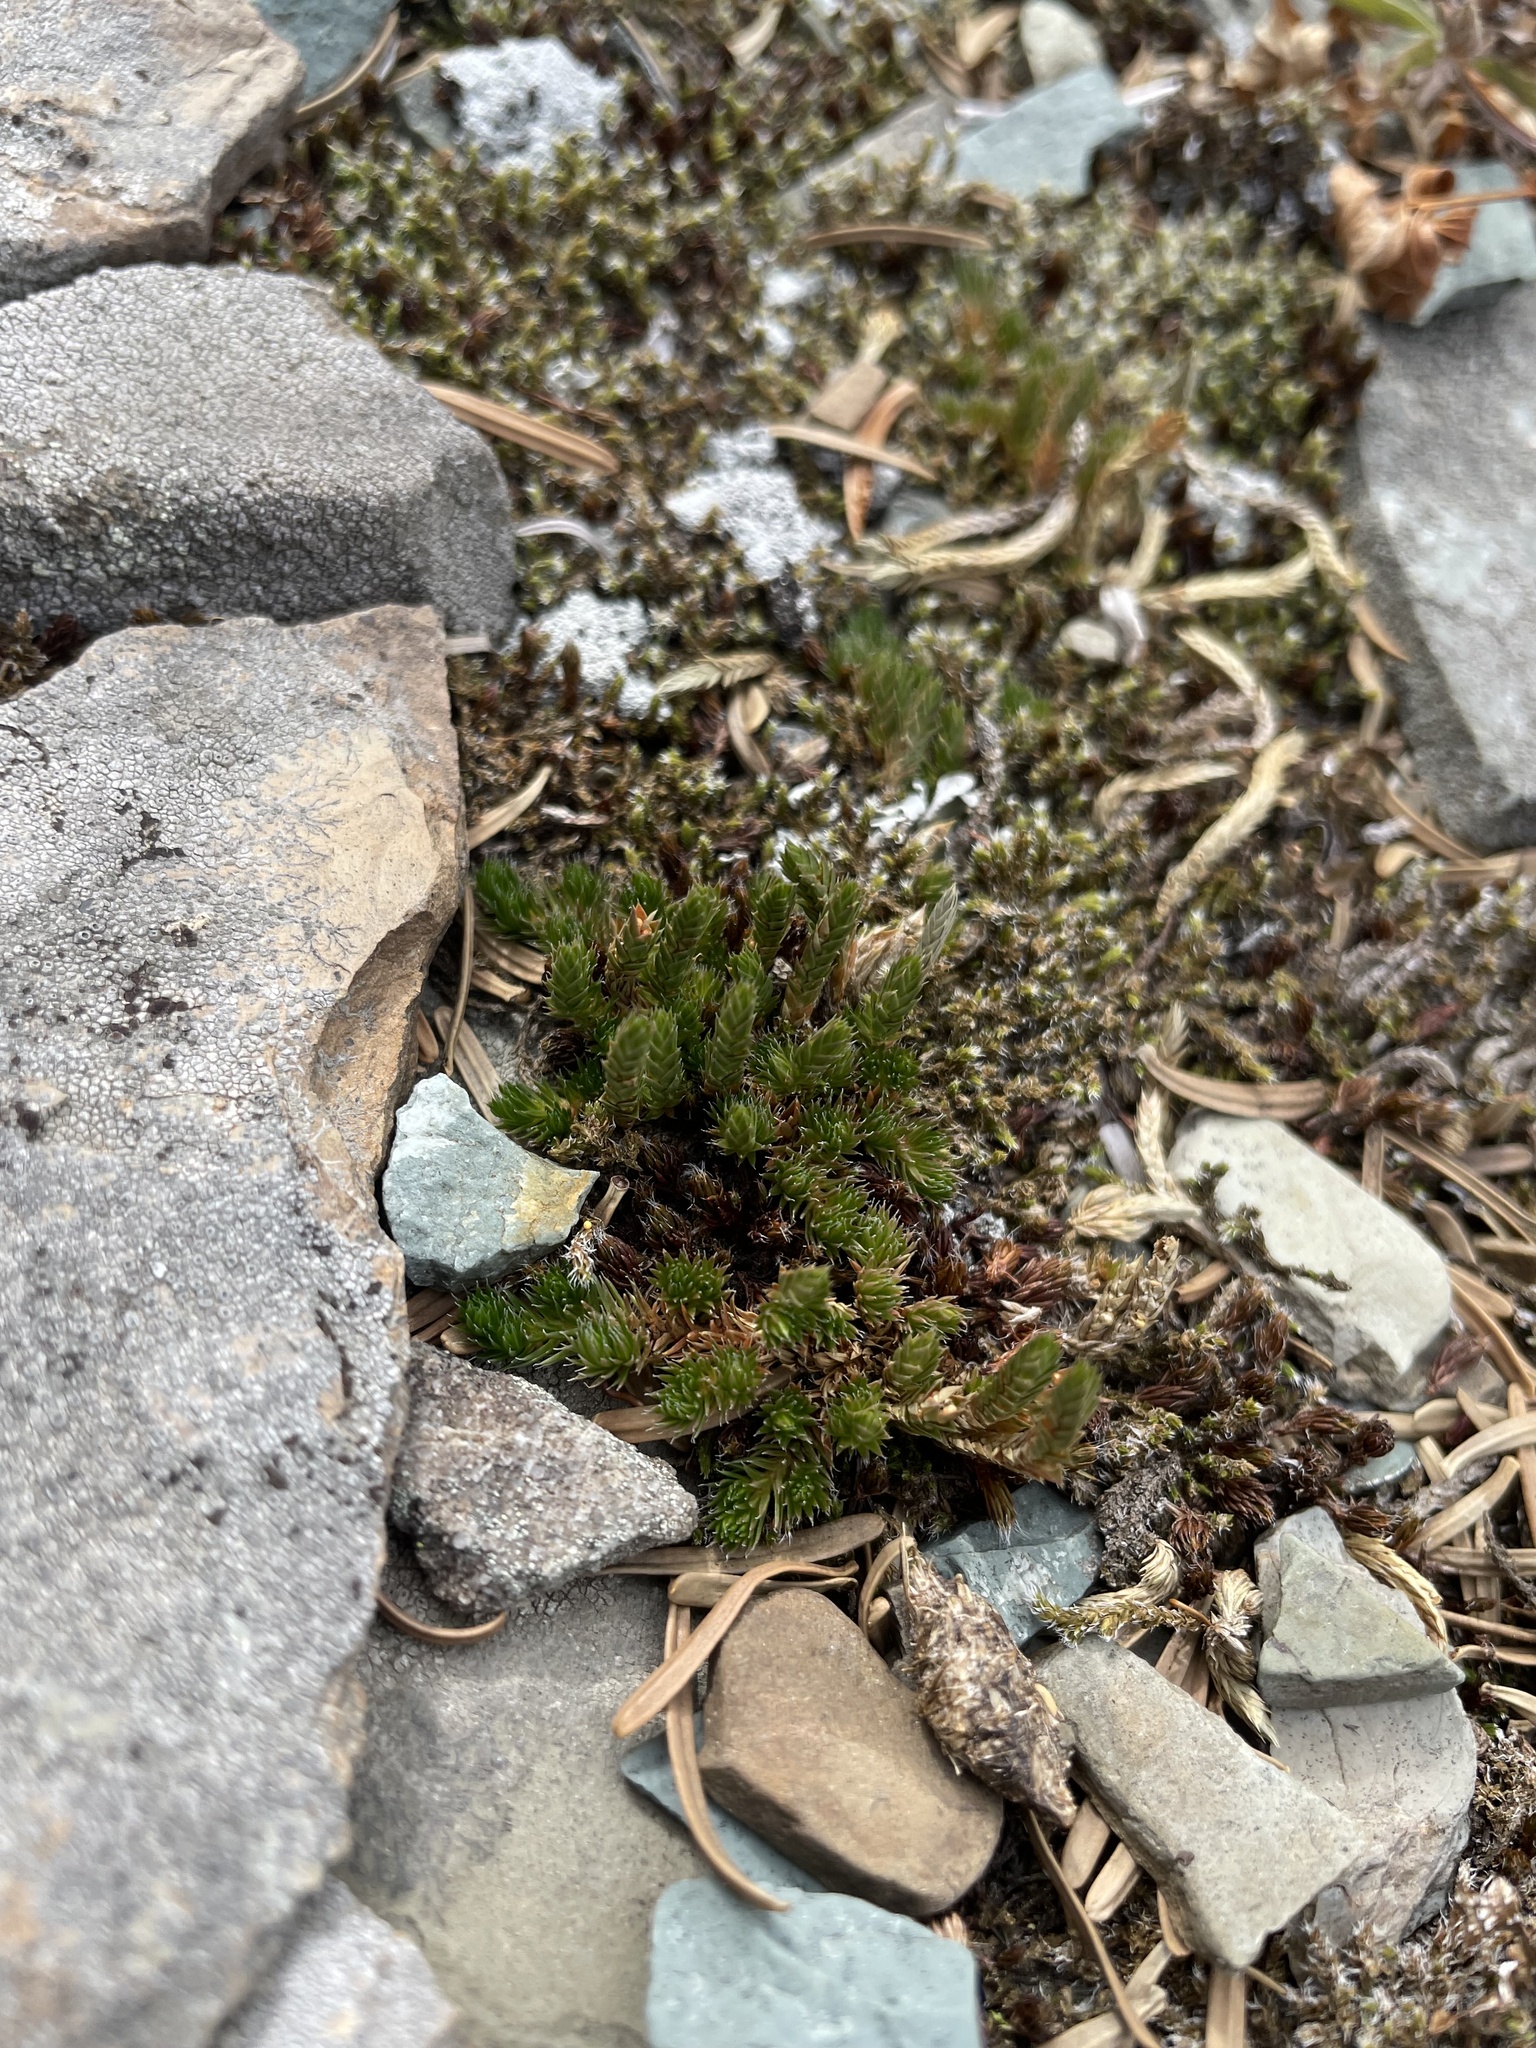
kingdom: Plantae
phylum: Tracheophyta
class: Lycopodiopsida
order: Selaginellales
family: Selaginellaceae
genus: Selaginella
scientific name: Selaginella densa
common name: Mountain spike-moss
